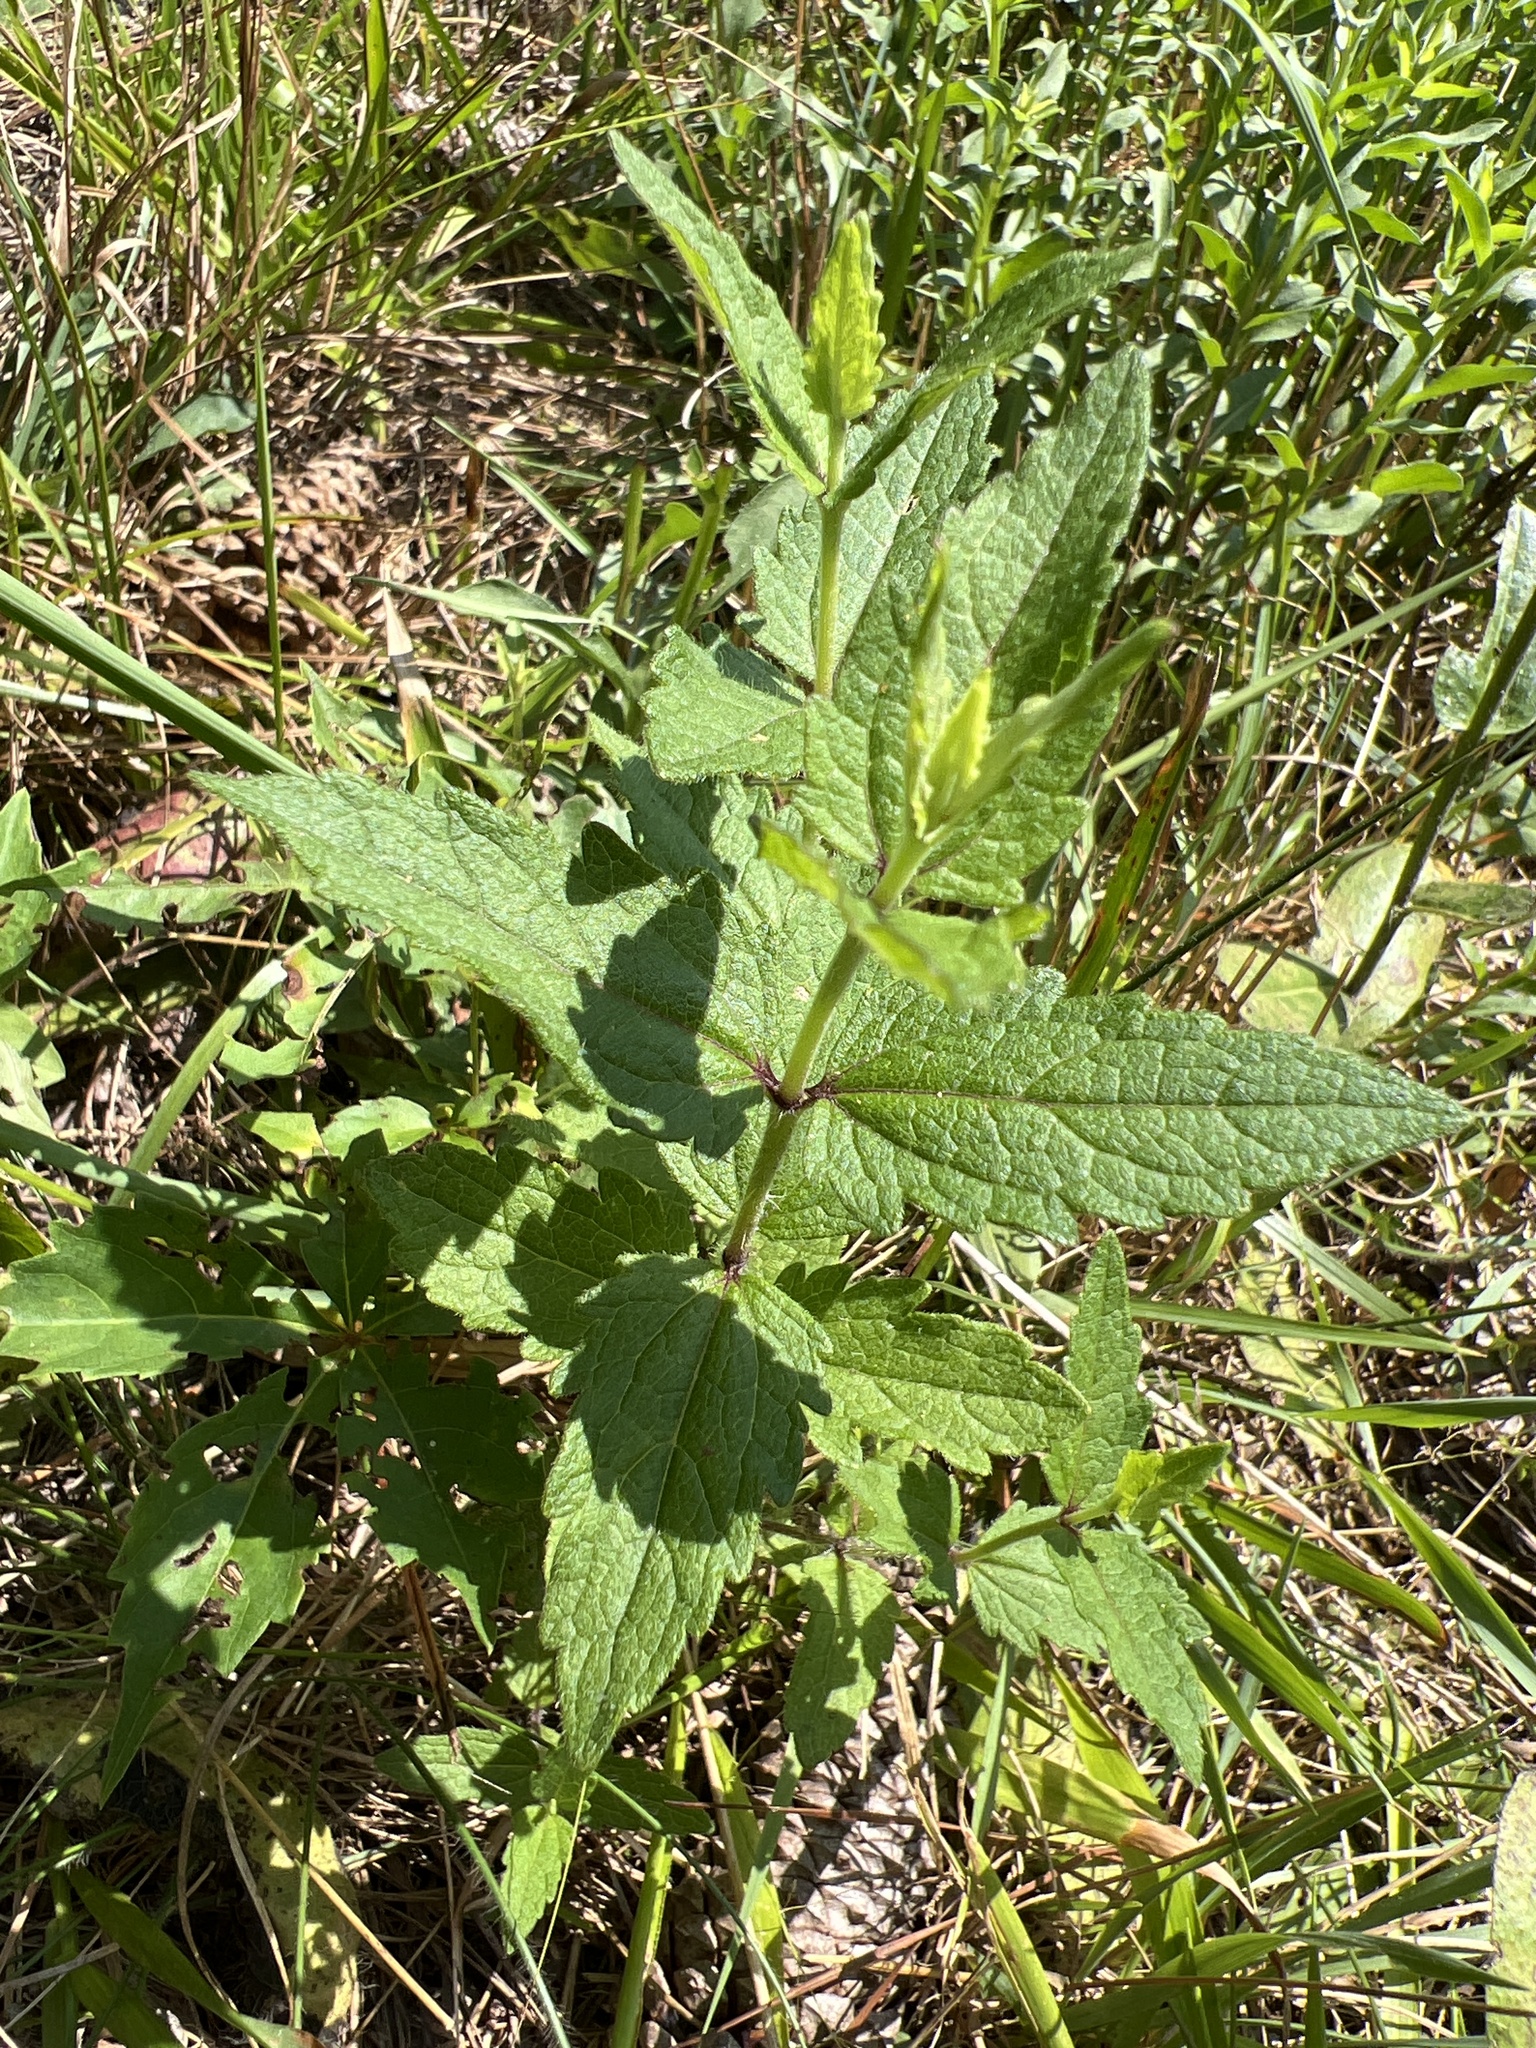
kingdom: Plantae
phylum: Tracheophyta
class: Magnoliopsida
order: Asterales
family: Asteraceae
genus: Eupatorium
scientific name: Eupatorium pilosum
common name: Rough boneset
